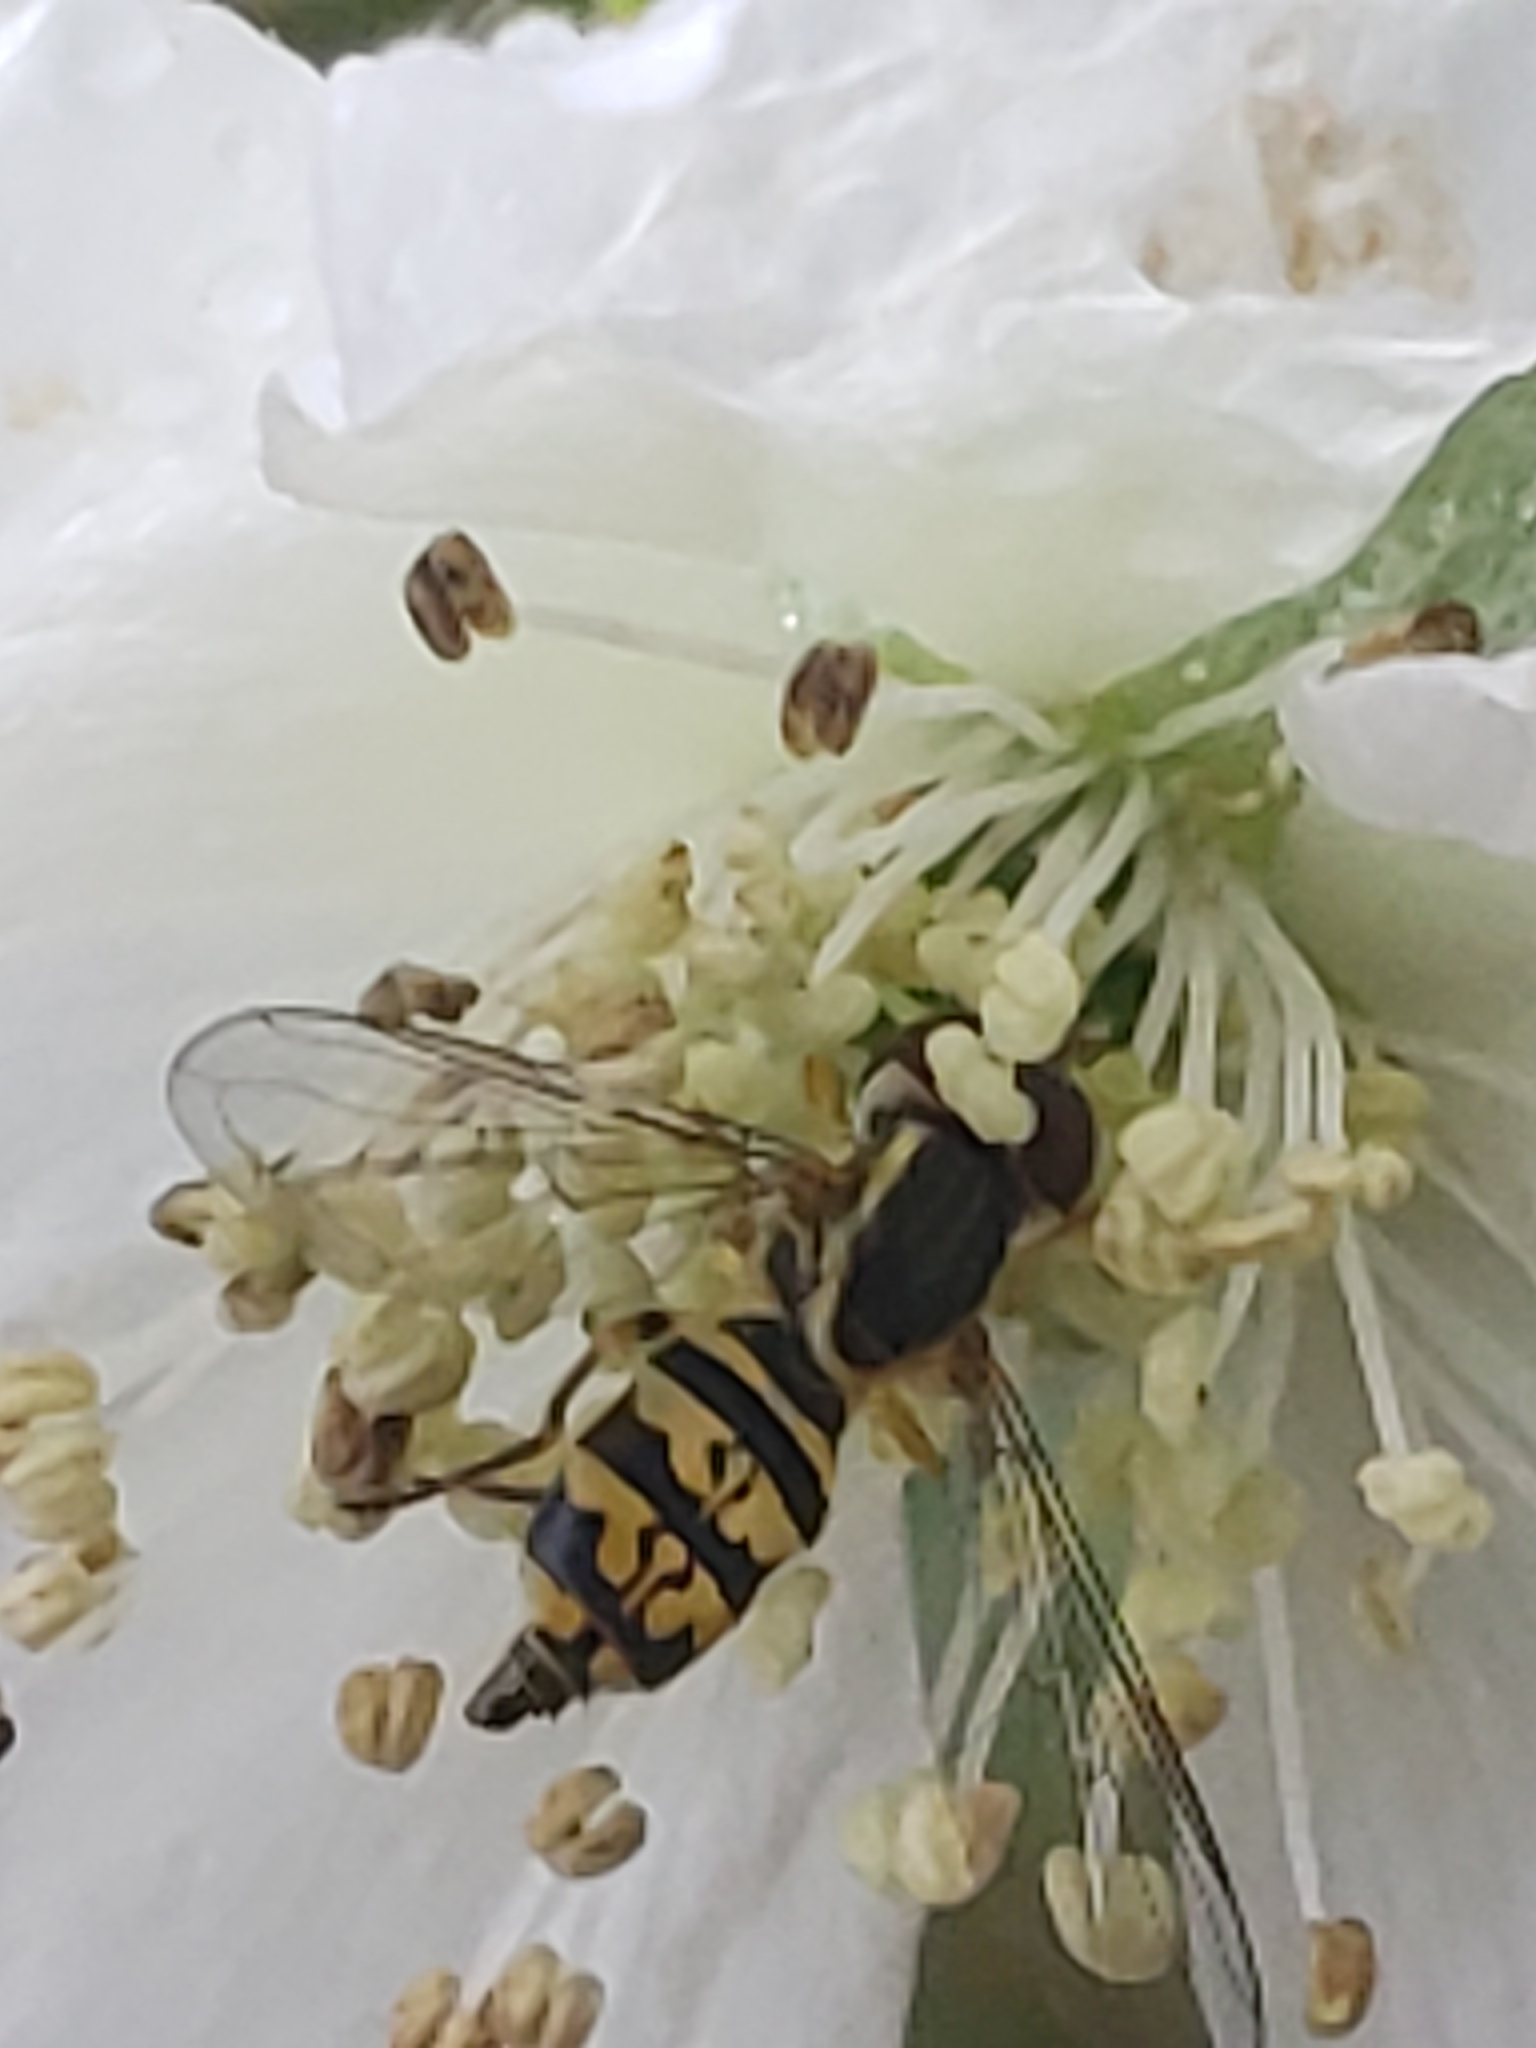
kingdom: Animalia
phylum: Arthropoda
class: Insecta
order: Diptera
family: Syrphidae
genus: Toxomerus
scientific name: Toxomerus geminatus
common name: Eastern calligrapher
